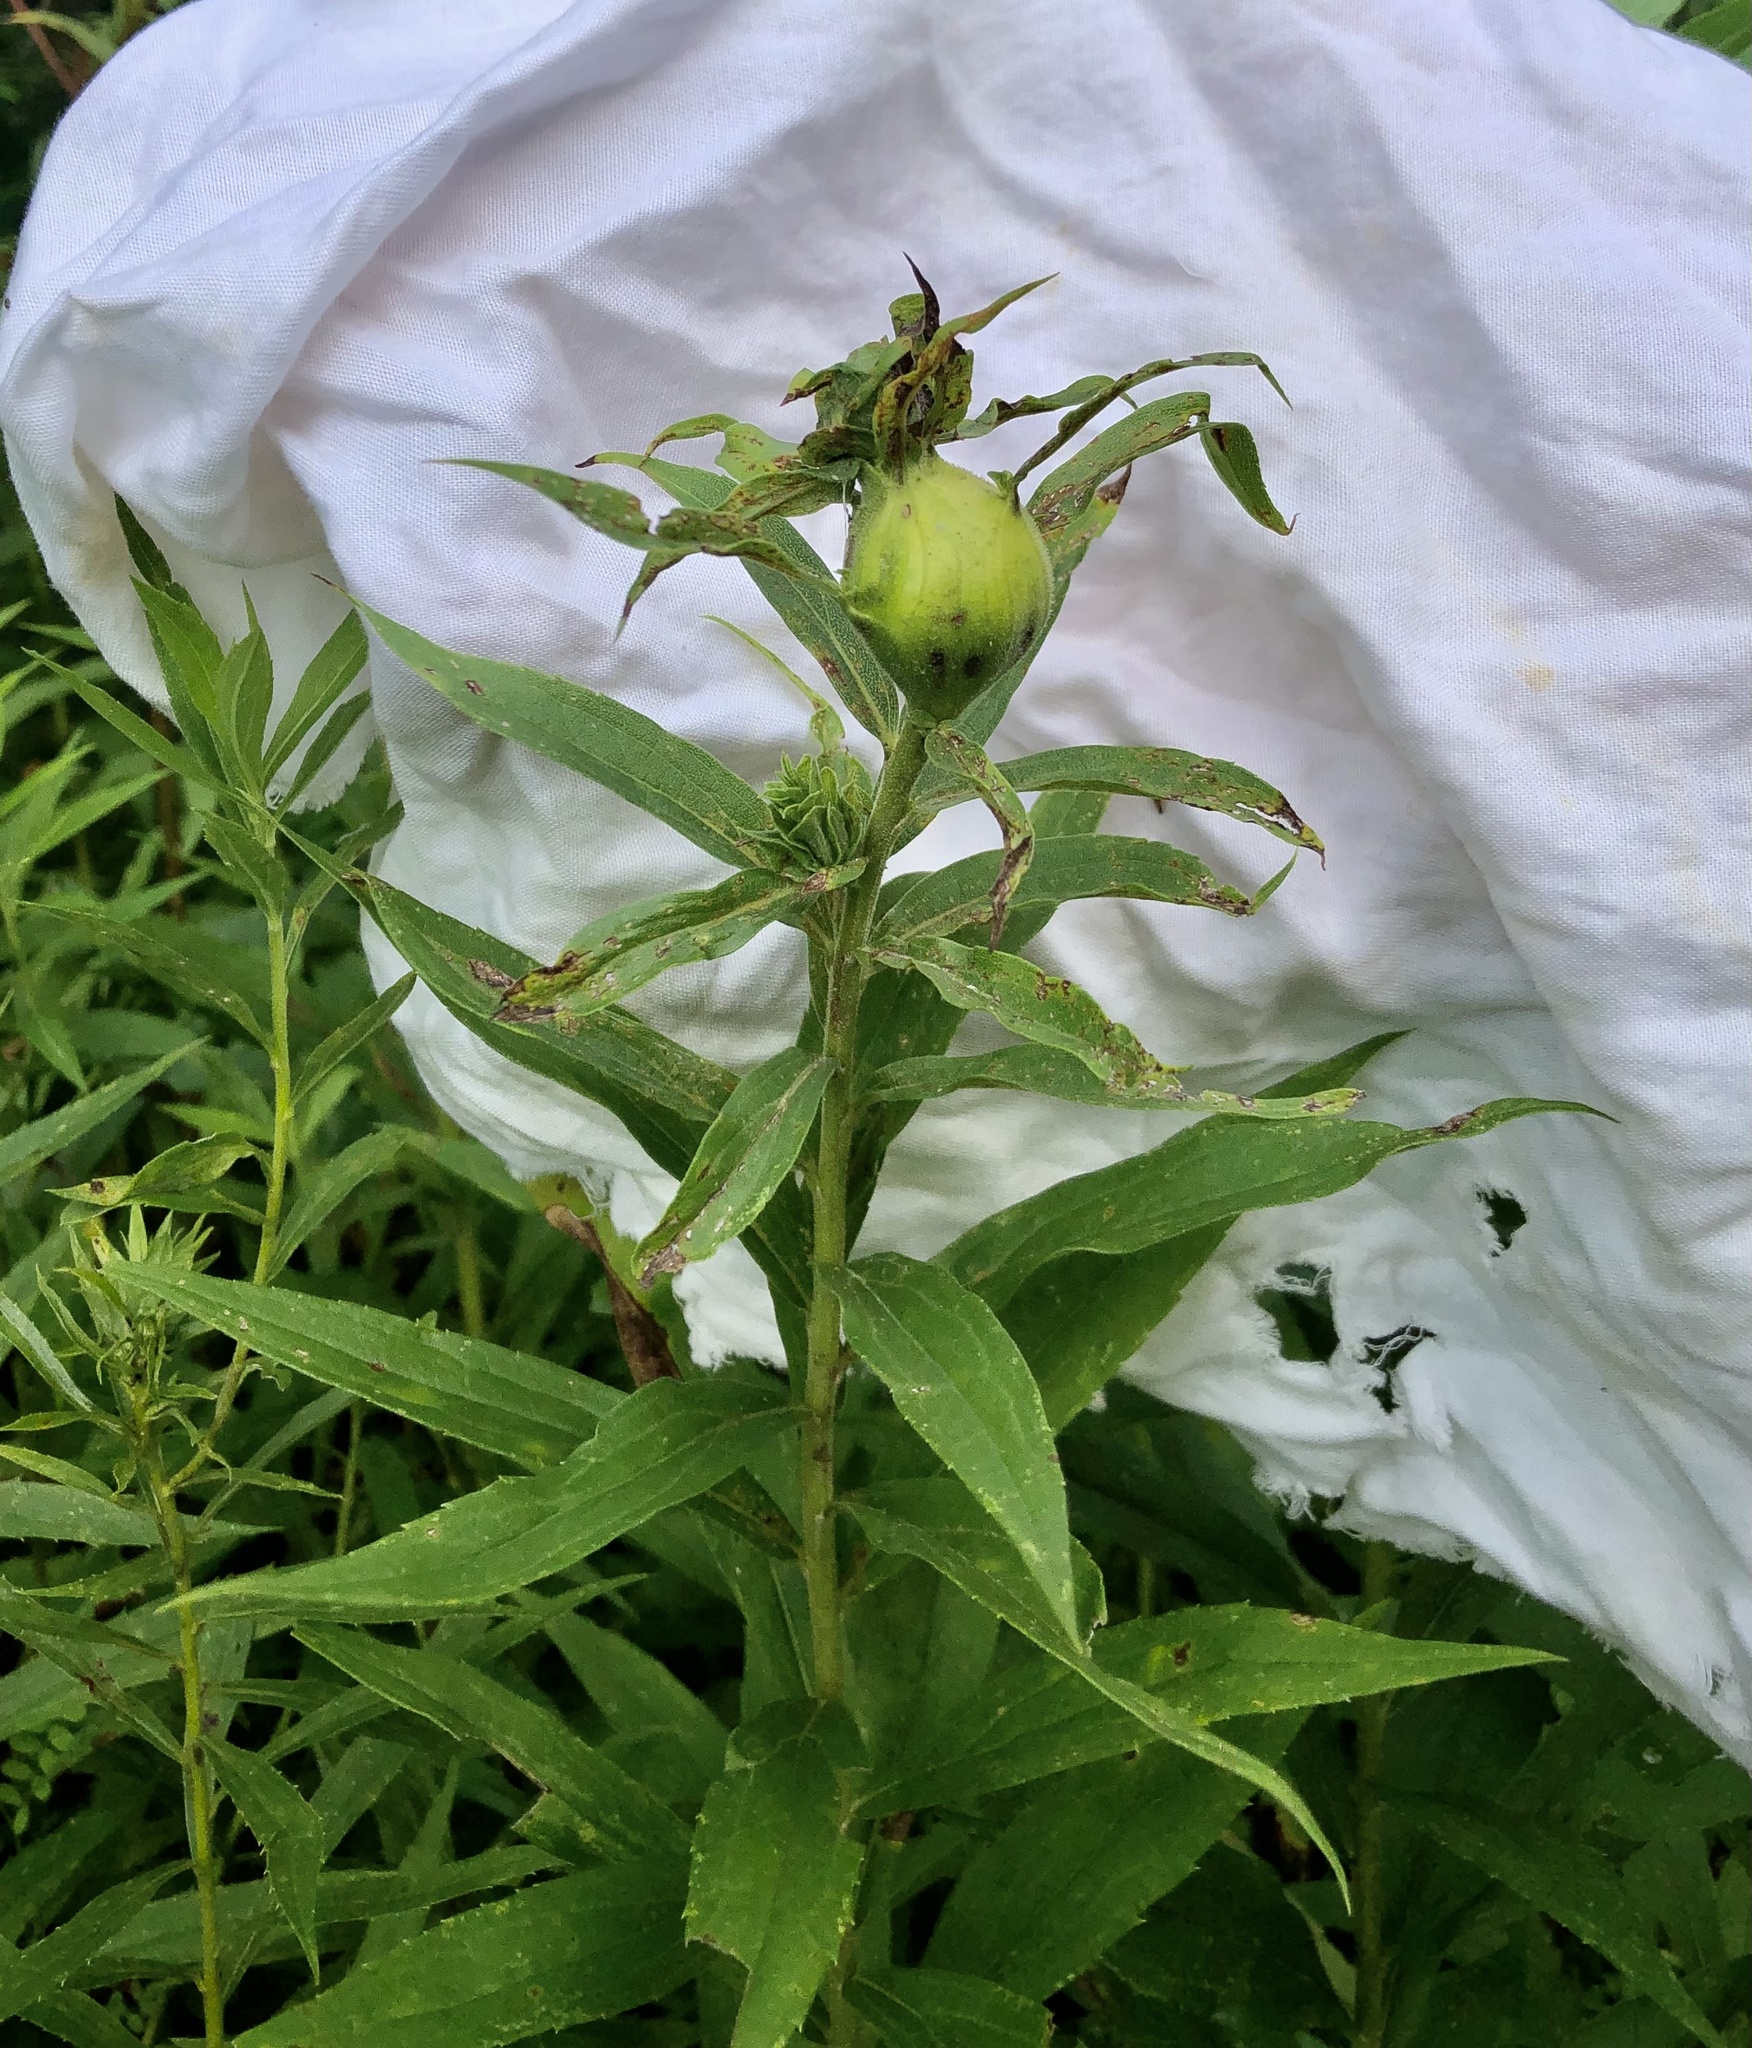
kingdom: Animalia
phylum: Arthropoda
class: Insecta
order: Diptera
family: Tephritidae
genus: Eurosta
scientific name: Eurosta solidaginis
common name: Goldenrod gall fly
